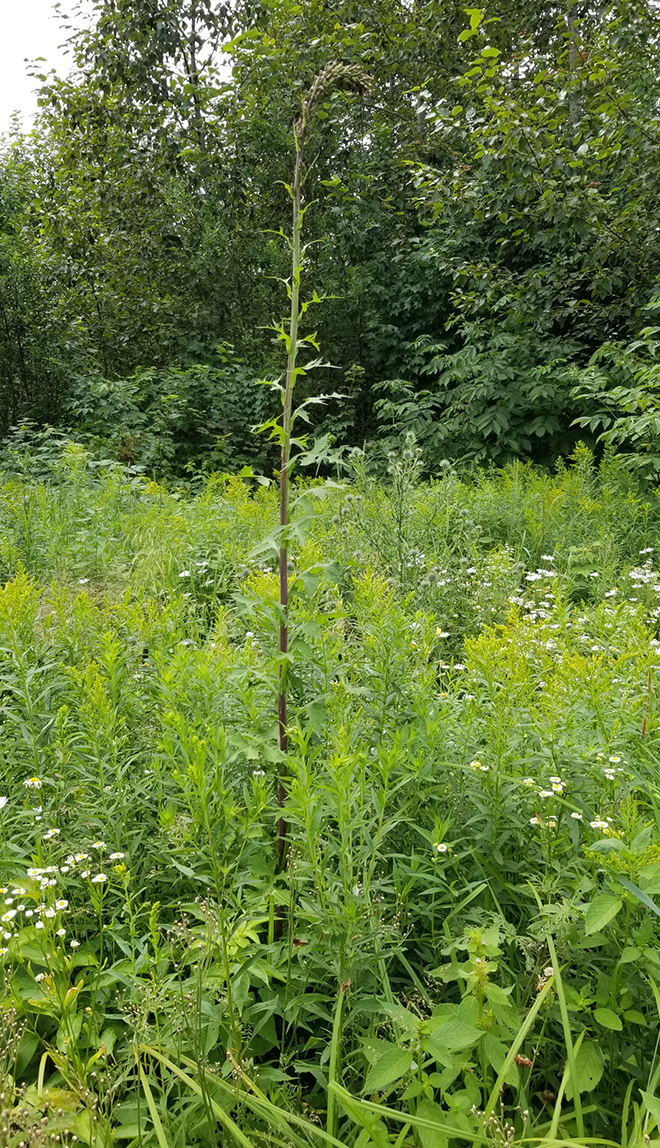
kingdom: Plantae
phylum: Tracheophyta
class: Magnoliopsida
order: Asterales
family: Asteraceae
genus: Lactuca
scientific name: Lactuca biennis
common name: Blue wood lettuce
